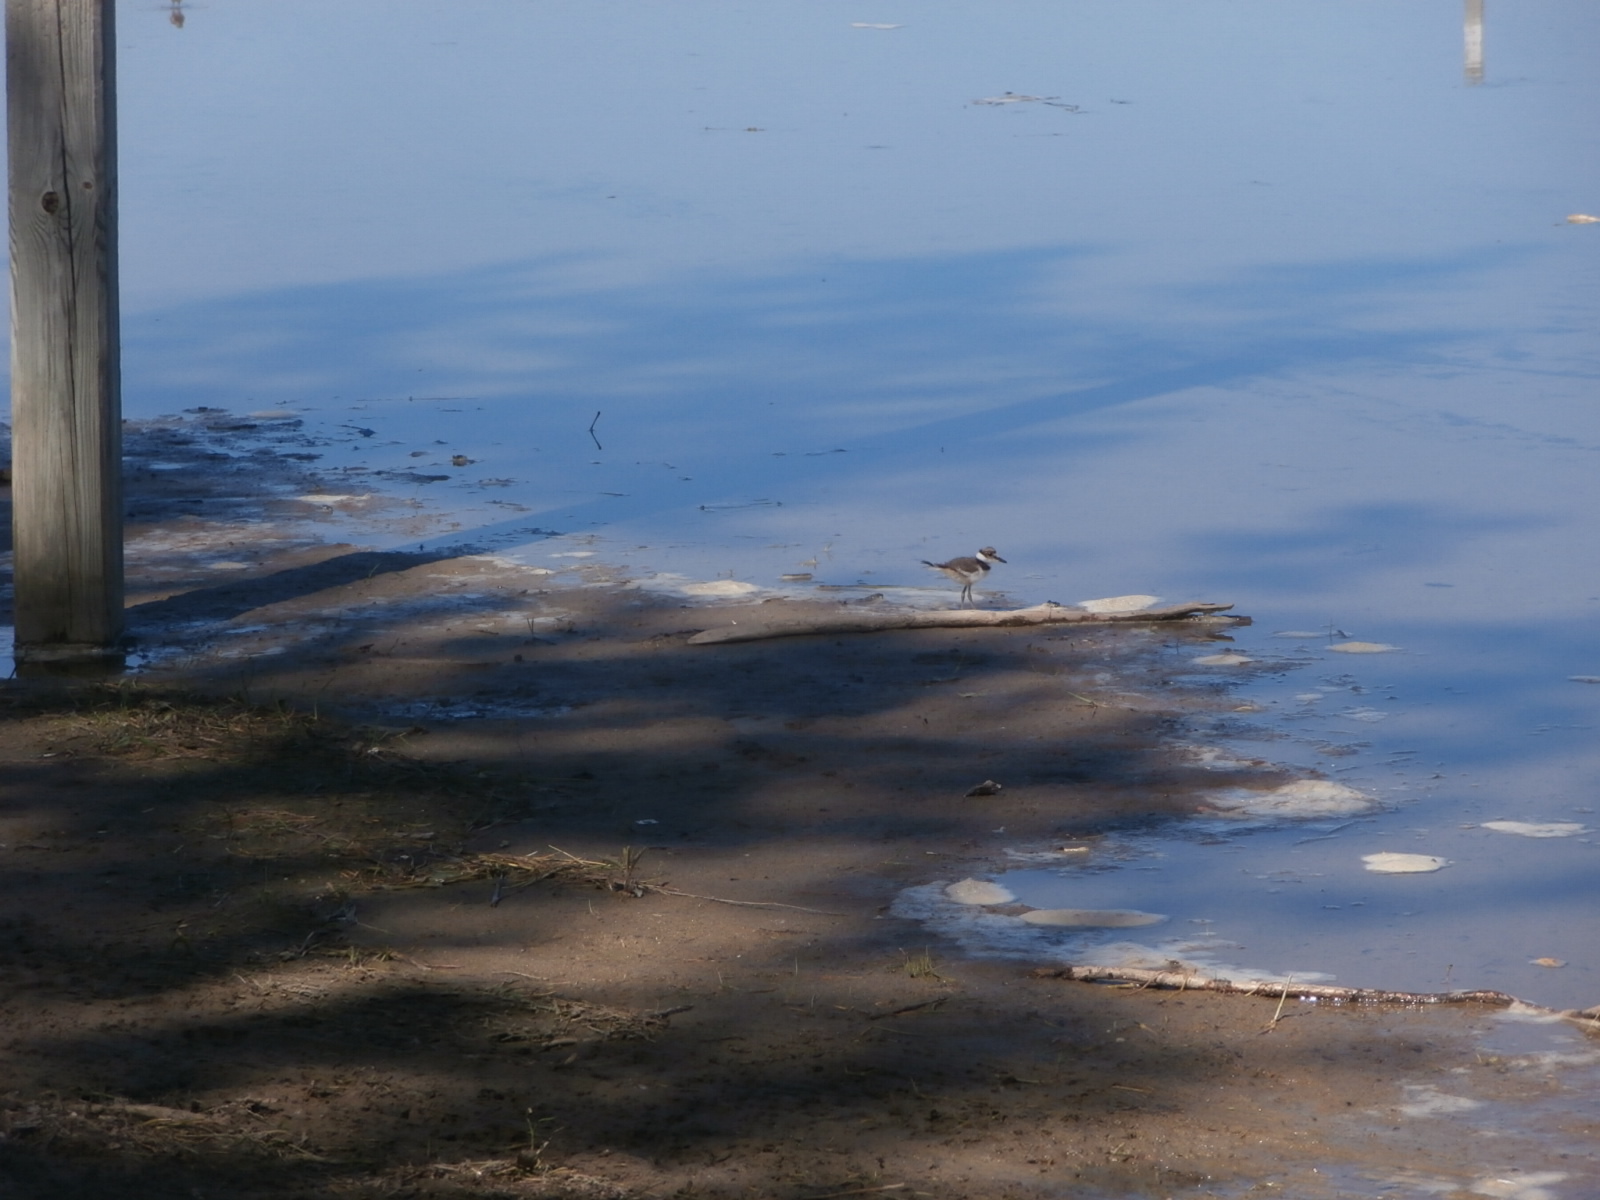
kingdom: Animalia
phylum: Chordata
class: Aves
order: Charadriiformes
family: Charadriidae
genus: Charadrius
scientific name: Charadrius vociferus
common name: Killdeer
